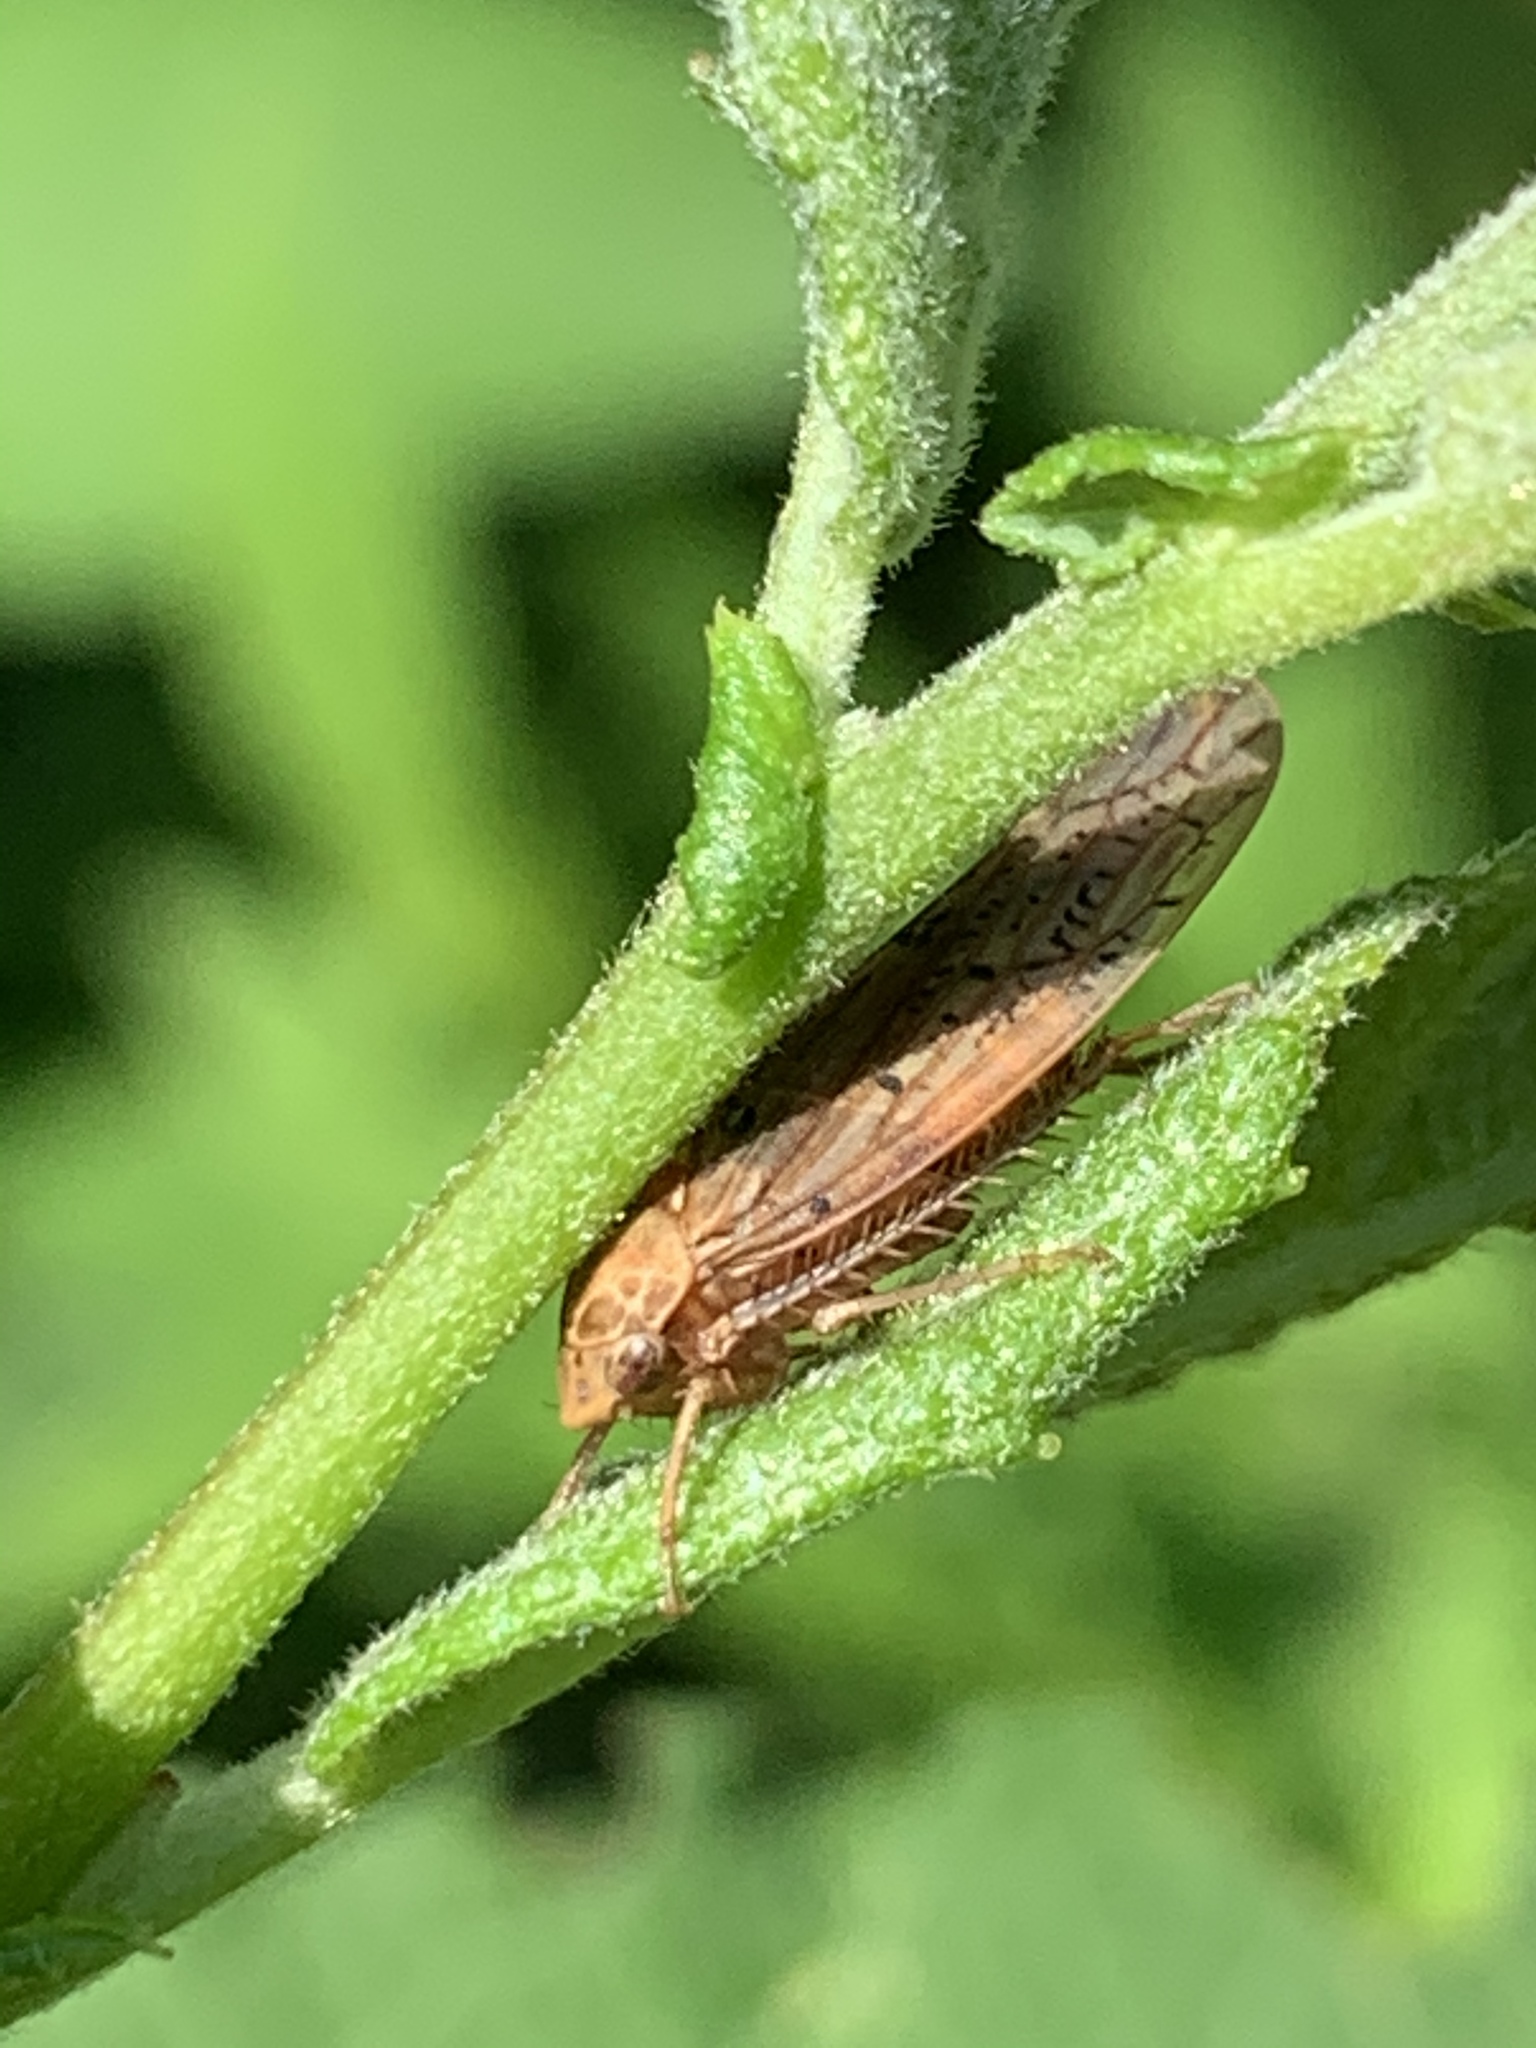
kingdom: Animalia
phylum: Arthropoda
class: Insecta
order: Hemiptera
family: Cicadellidae
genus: Ponana
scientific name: Ponana rubida
